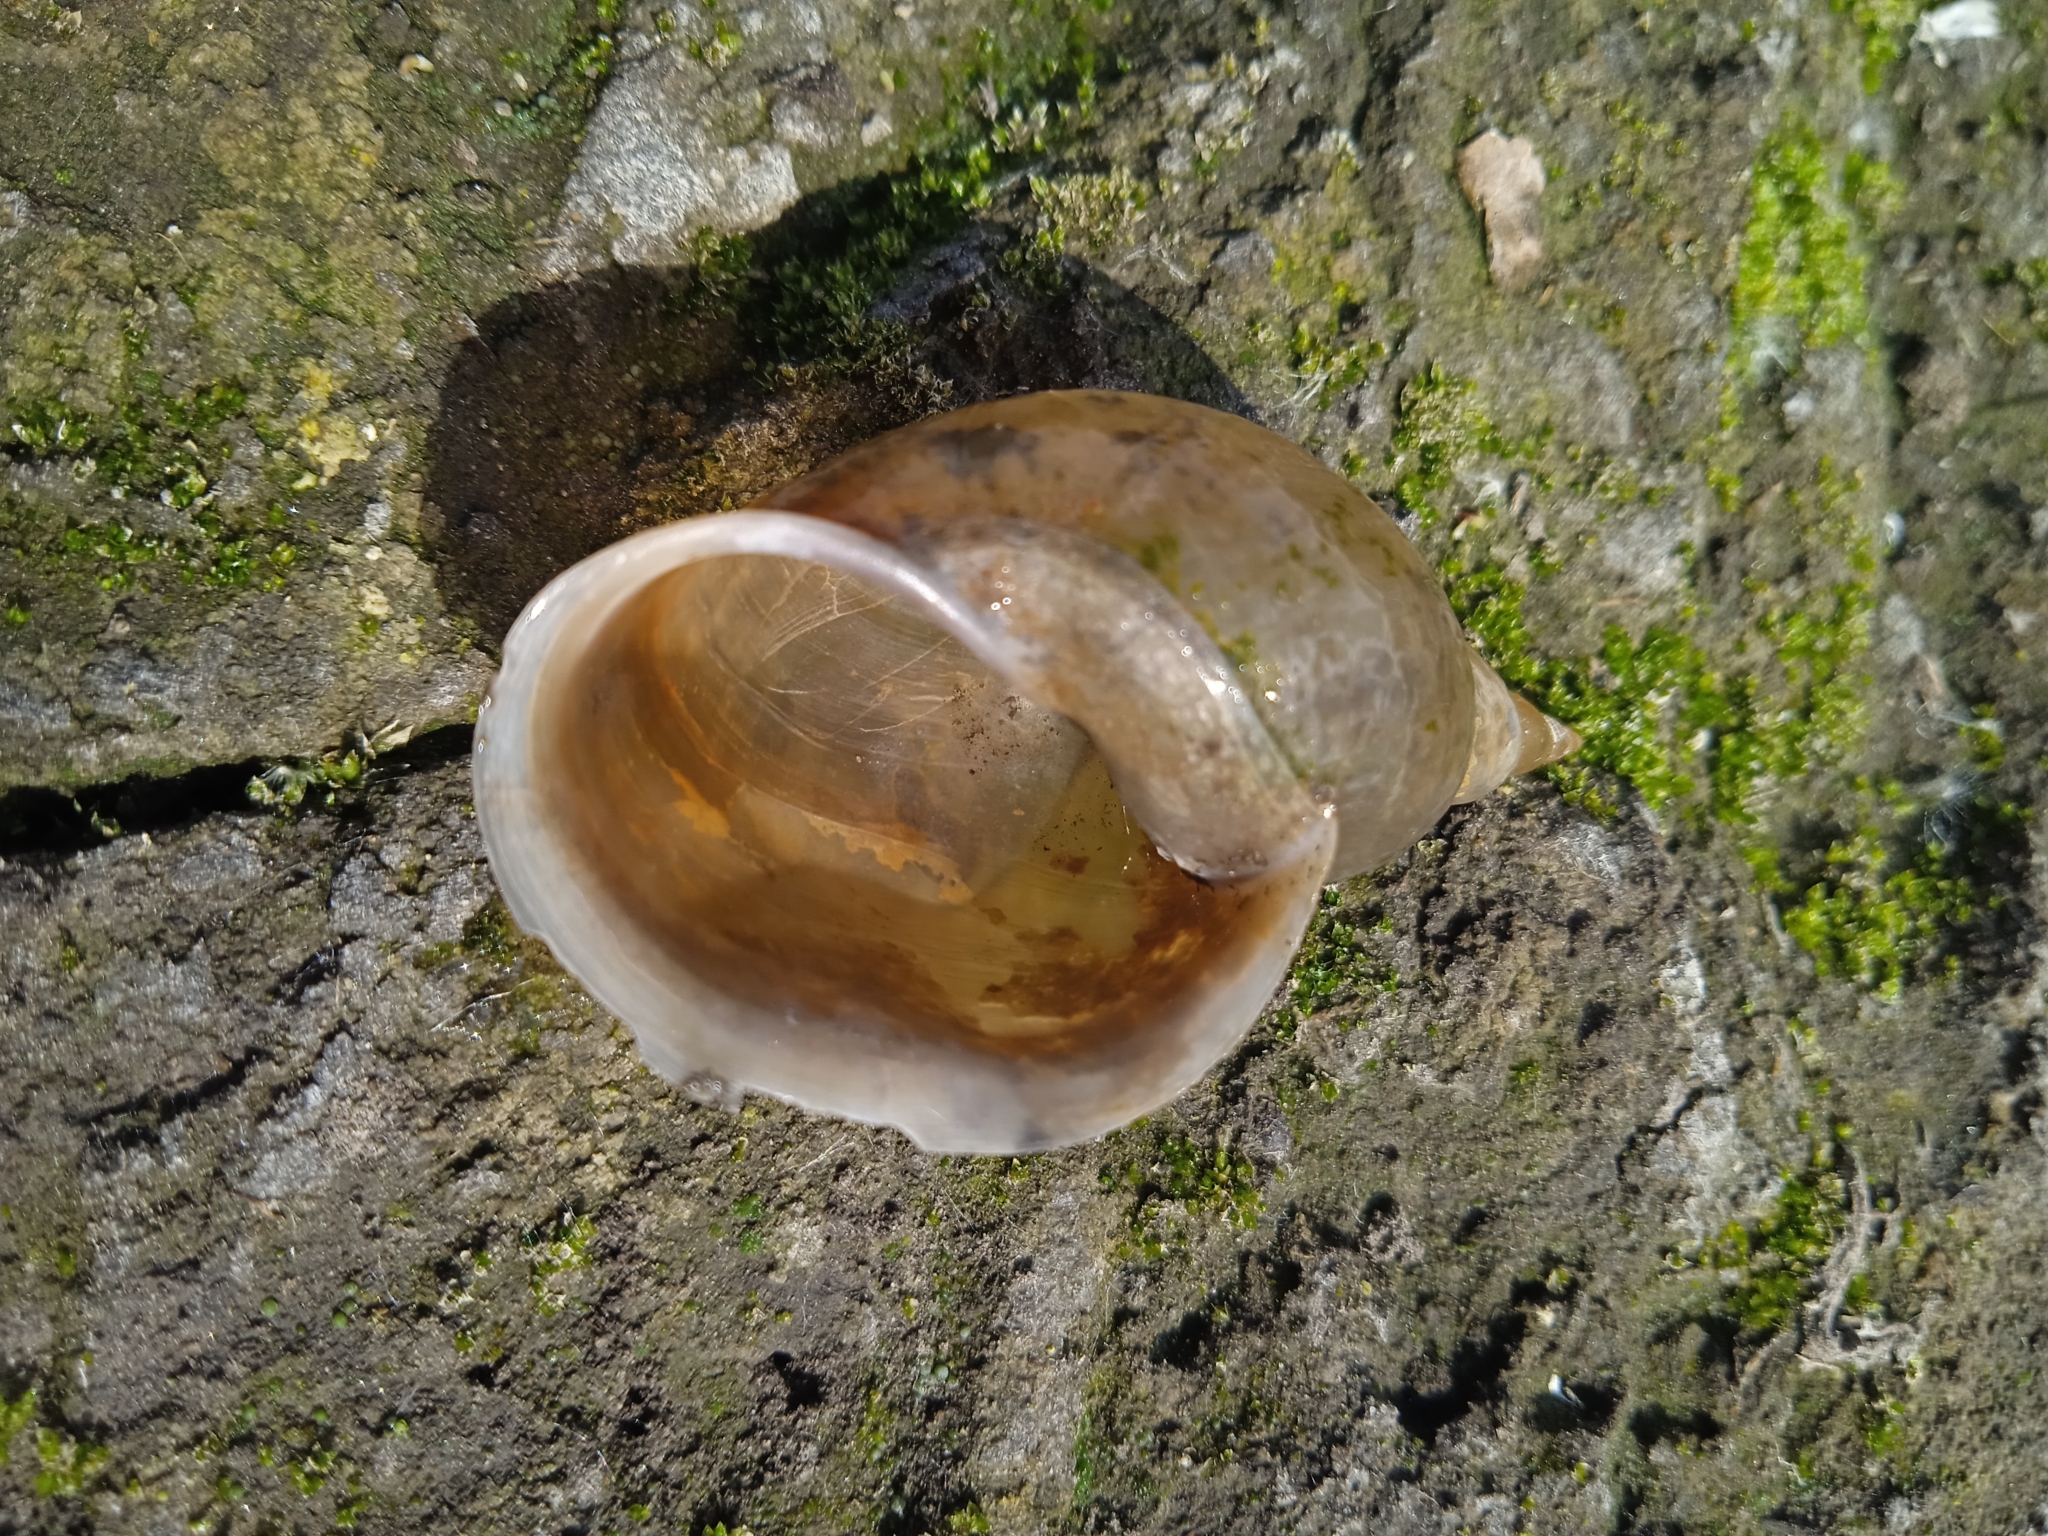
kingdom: Animalia
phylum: Mollusca
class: Gastropoda
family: Lymnaeidae
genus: Lymnaea
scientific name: Lymnaea stagnalis
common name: Great pond snail
